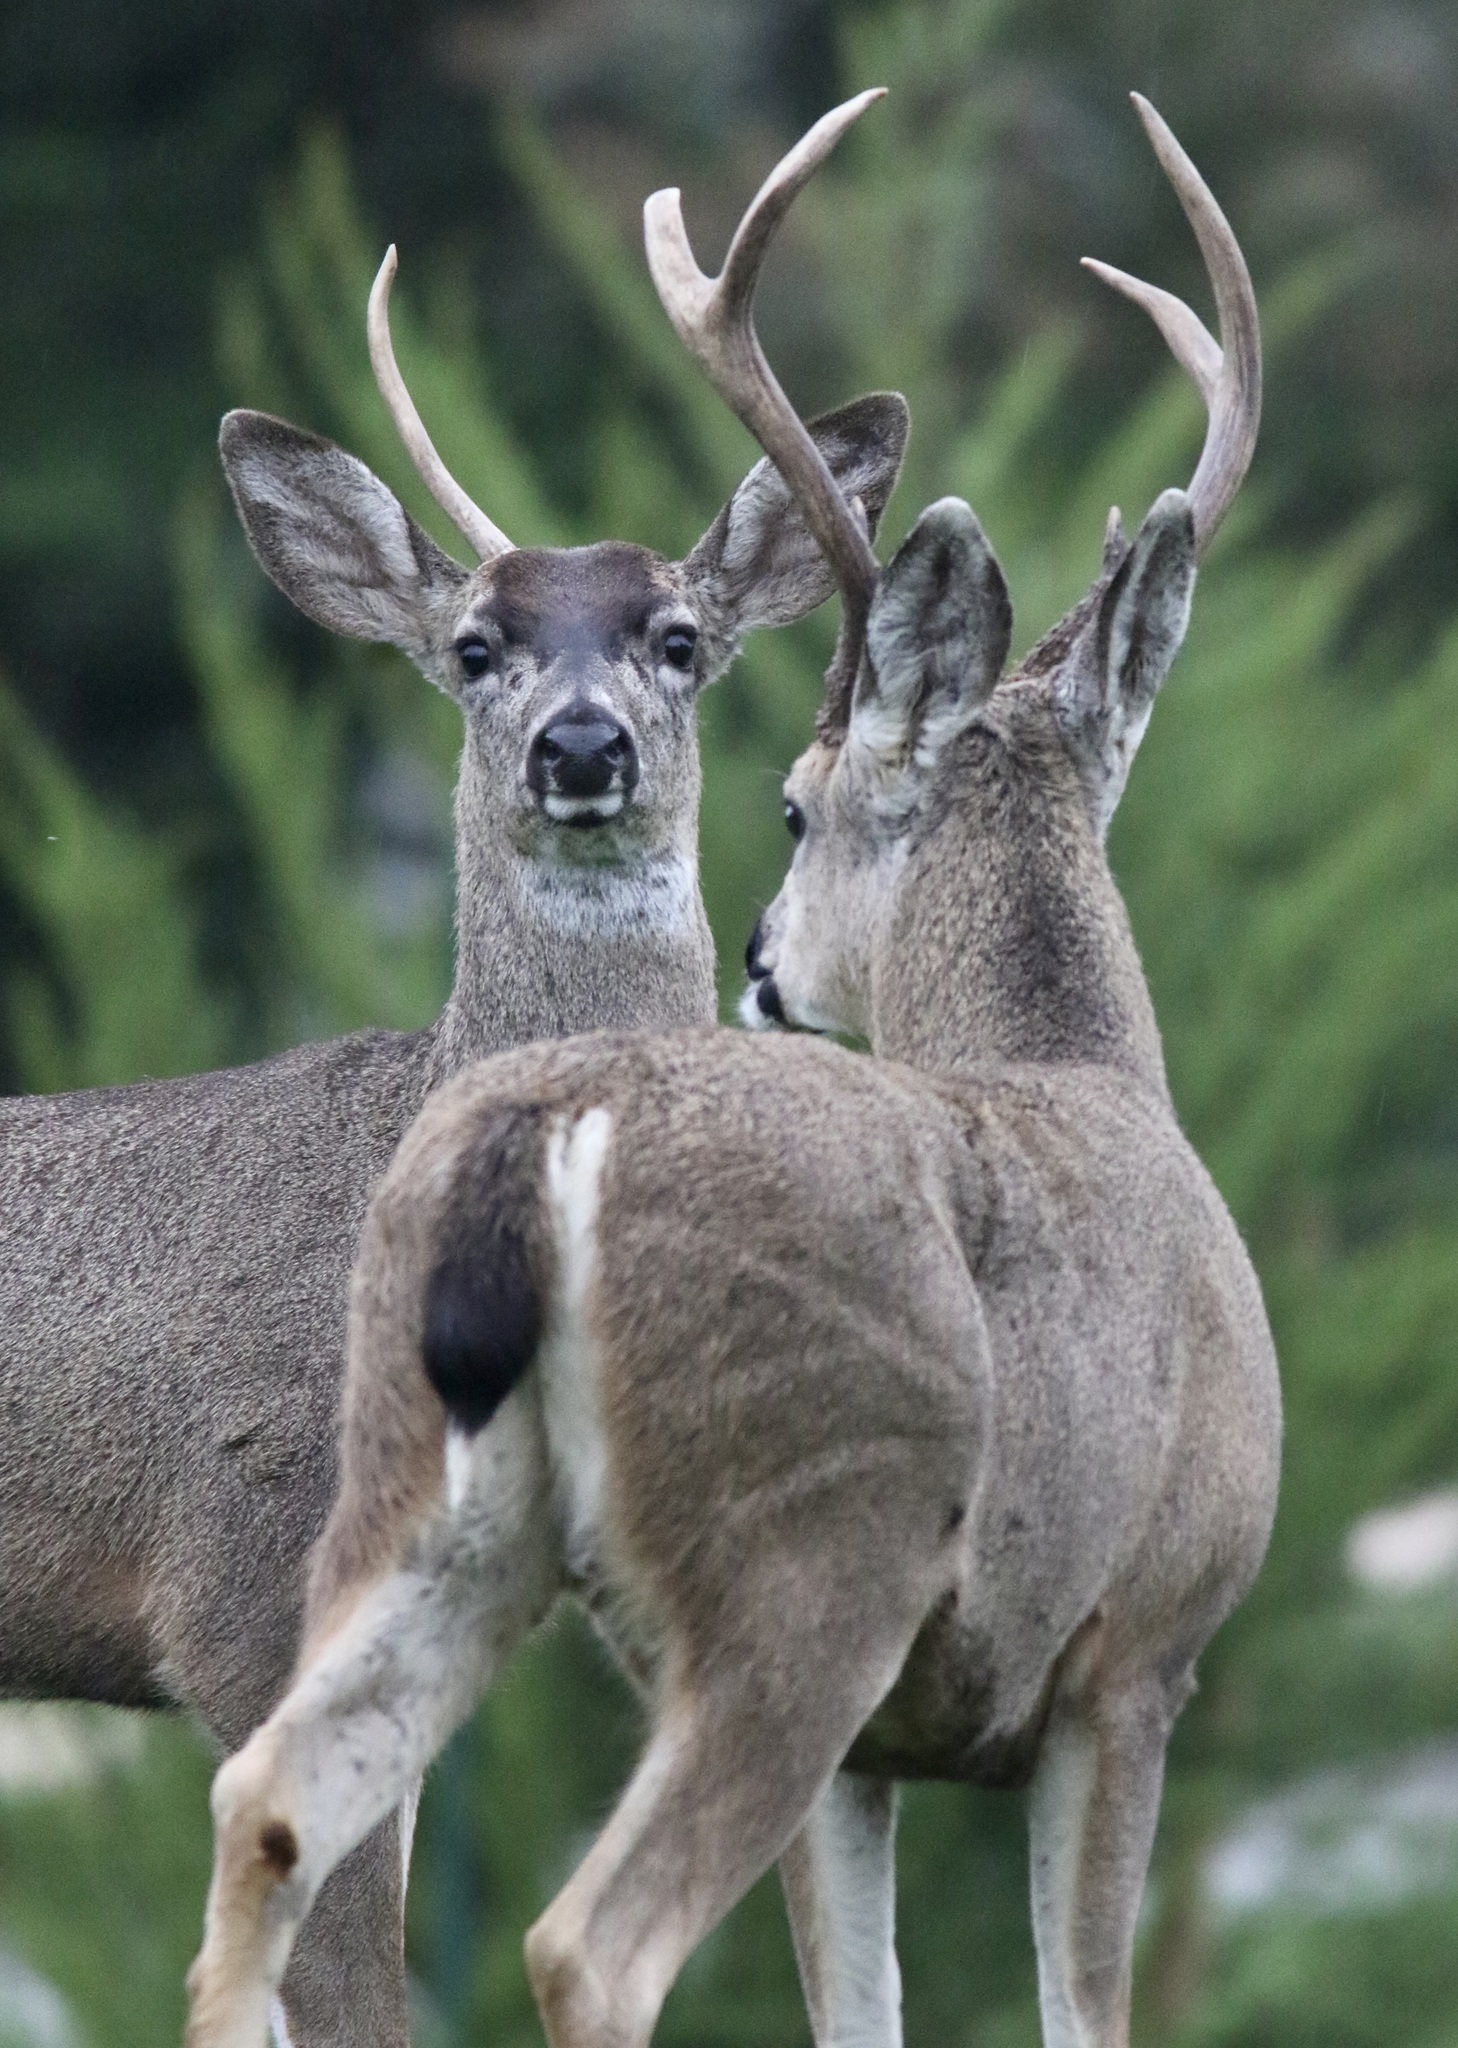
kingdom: Animalia
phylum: Chordata
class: Mammalia
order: Artiodactyla
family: Cervidae
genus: Odocoileus
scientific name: Odocoileus hemionus
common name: Mule deer
